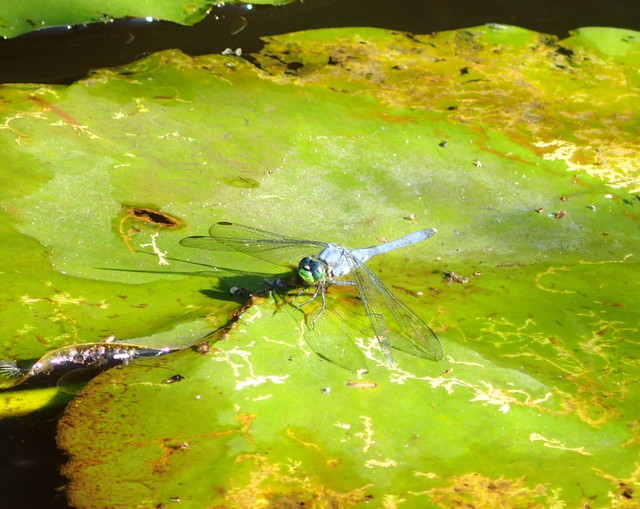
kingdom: Animalia
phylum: Arthropoda
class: Insecta
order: Odonata
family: Libellulidae
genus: Erythemis
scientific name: Erythemis simplicicollis
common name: Eastern pondhawk
